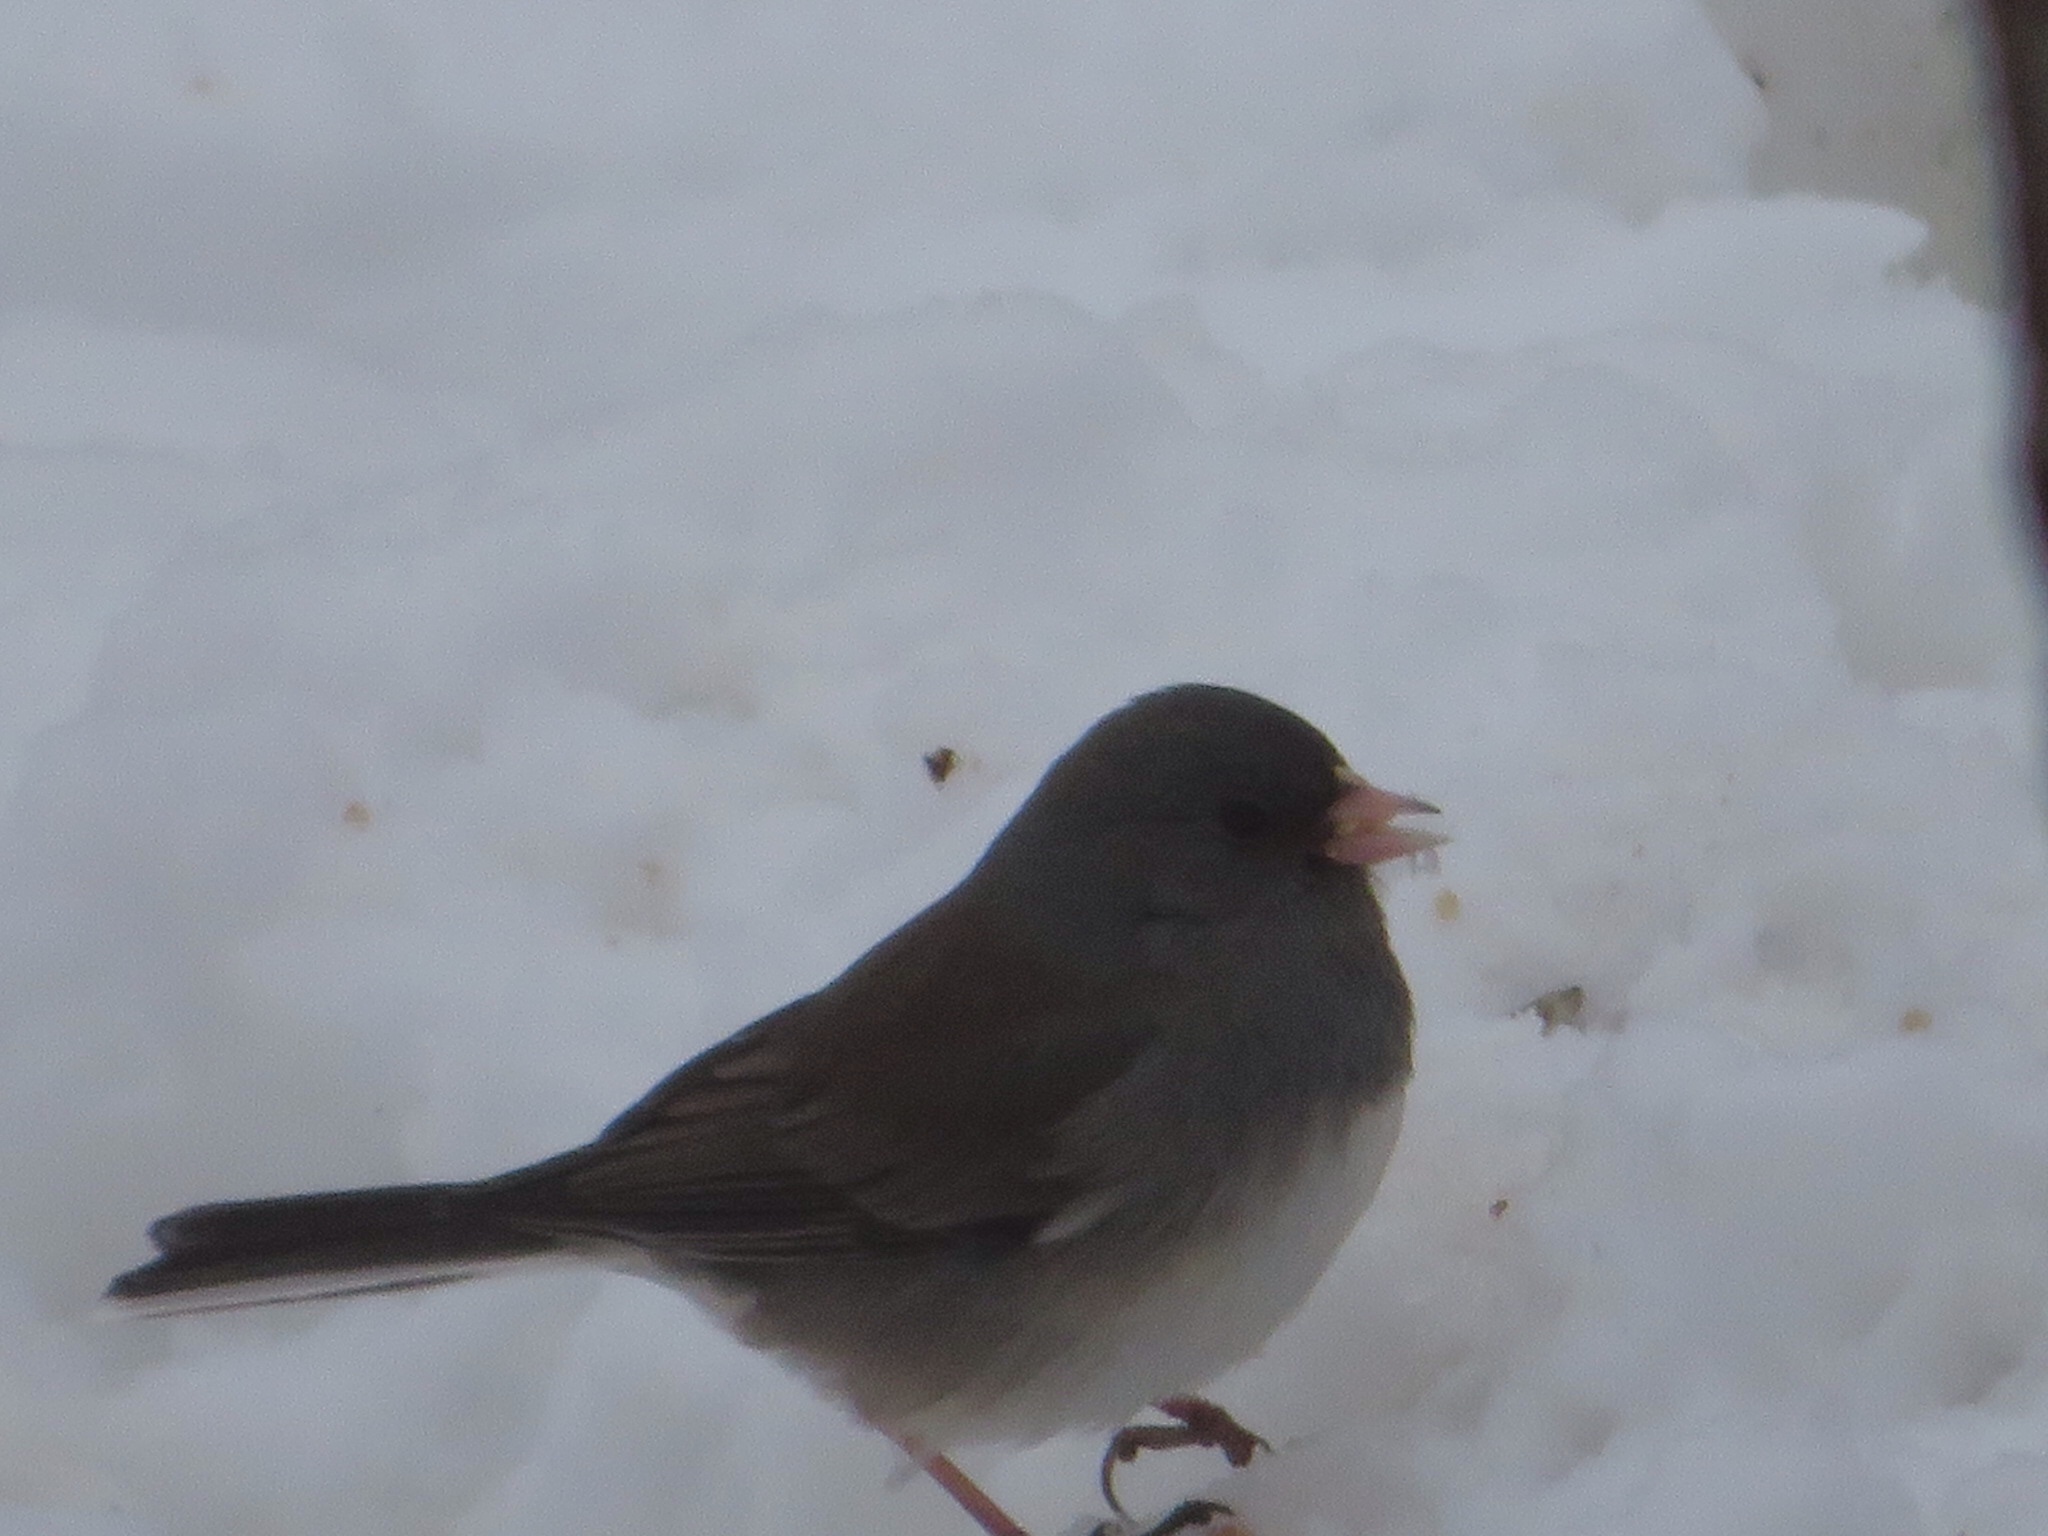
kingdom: Animalia
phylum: Chordata
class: Aves
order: Passeriformes
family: Passerellidae
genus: Junco
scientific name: Junco hyemalis
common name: Dark-eyed junco
